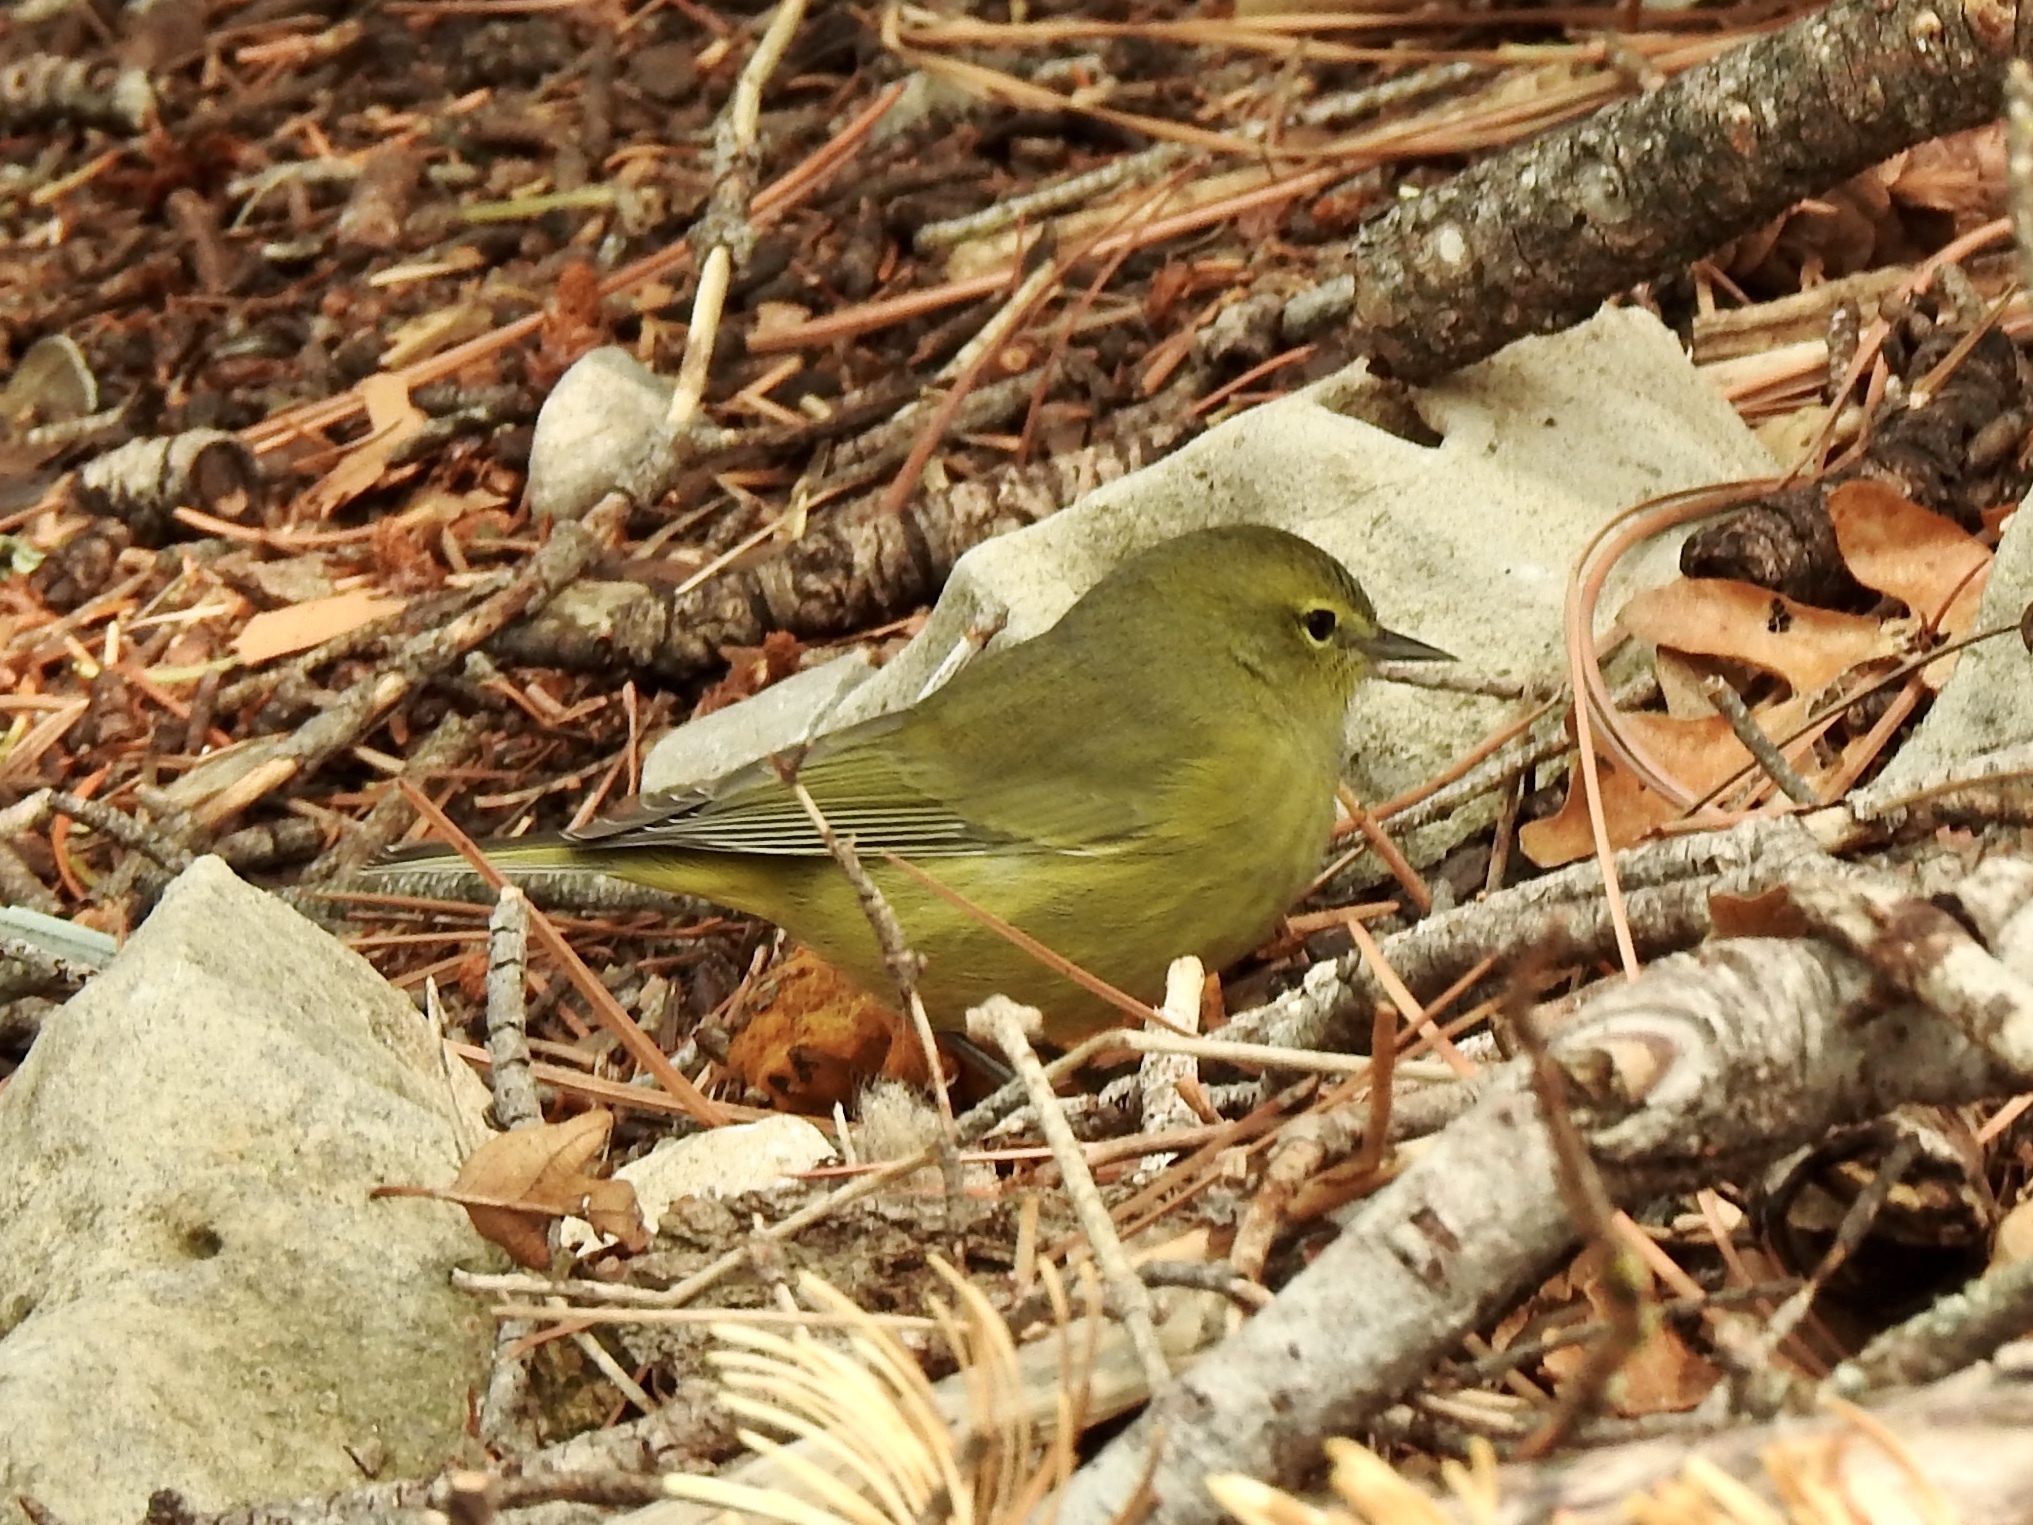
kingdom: Animalia
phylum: Chordata
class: Aves
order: Passeriformes
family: Parulidae
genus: Leiothlypis
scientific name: Leiothlypis celata
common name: Orange-crowned warbler
